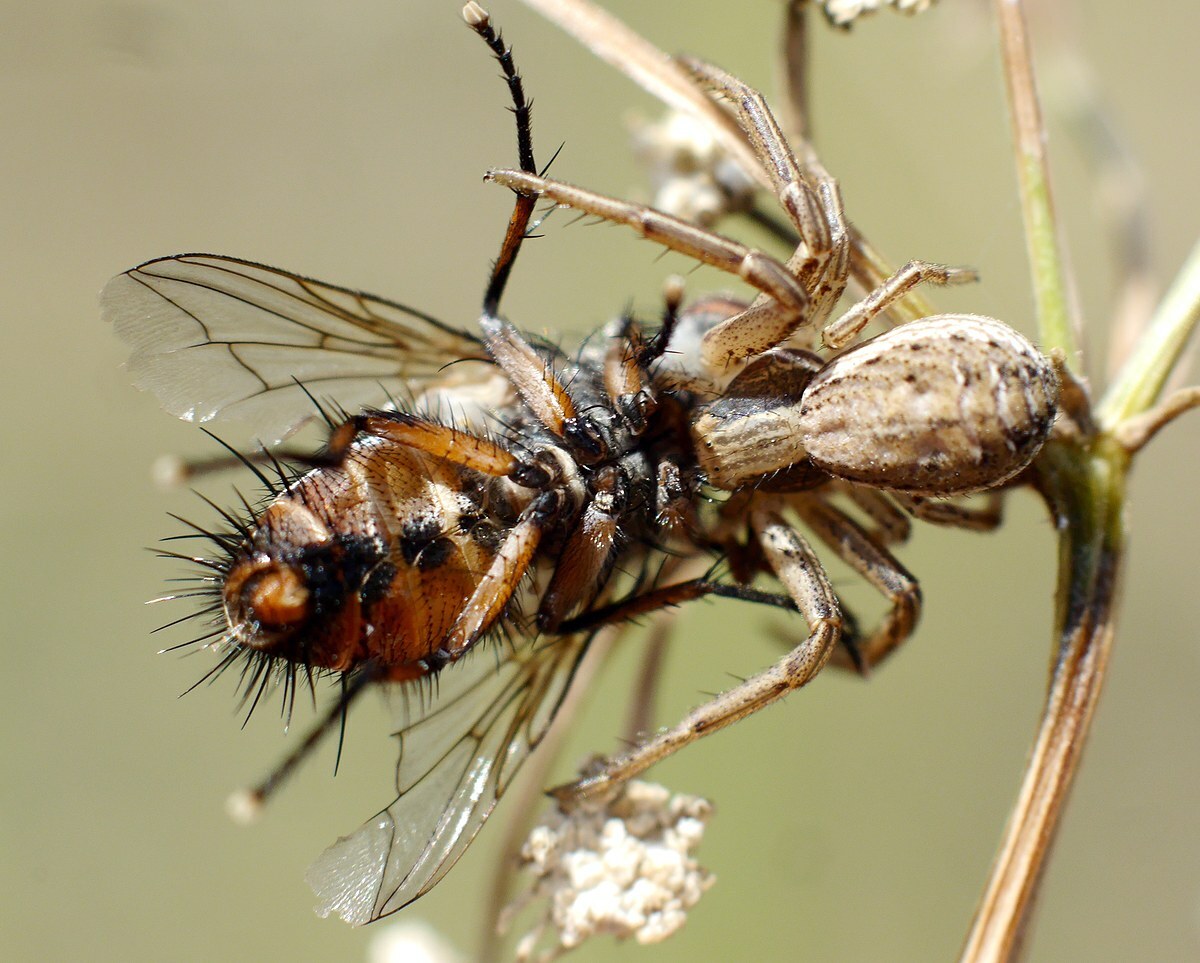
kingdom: Animalia
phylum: Arthropoda
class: Arachnida
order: Araneae
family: Thomisidae
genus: Spiracme
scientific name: Spiracme striatipes
